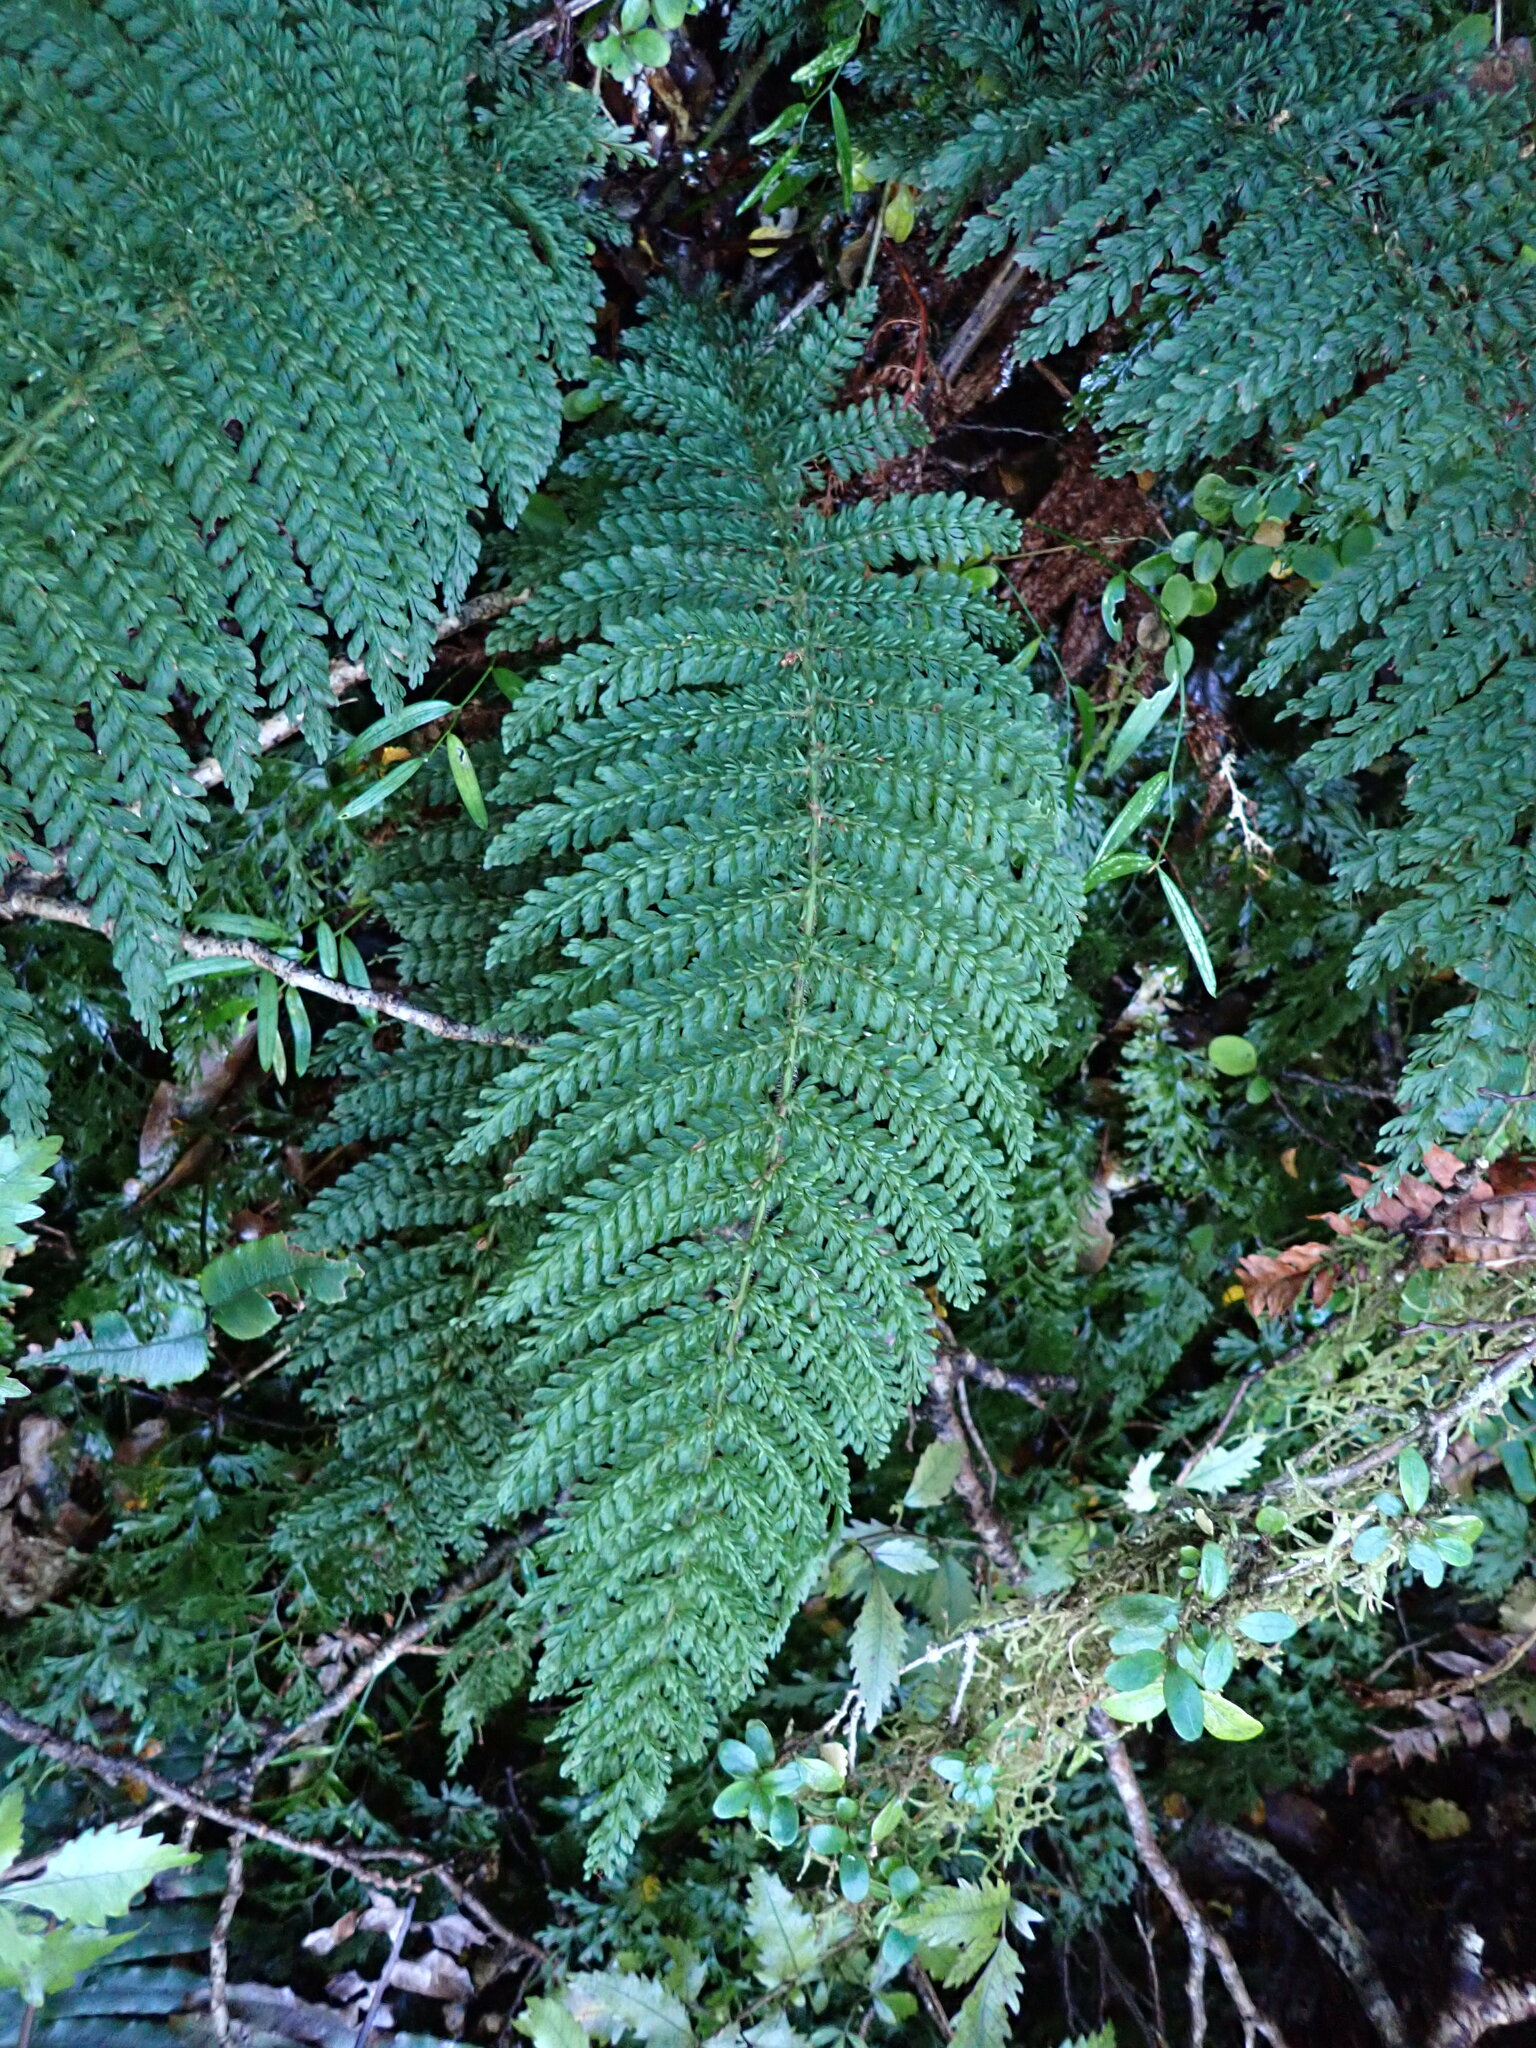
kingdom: Plantae
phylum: Tracheophyta
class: Polypodiopsida
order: Osmundales
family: Osmundaceae
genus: Leptopteris
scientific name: Leptopteris superba
